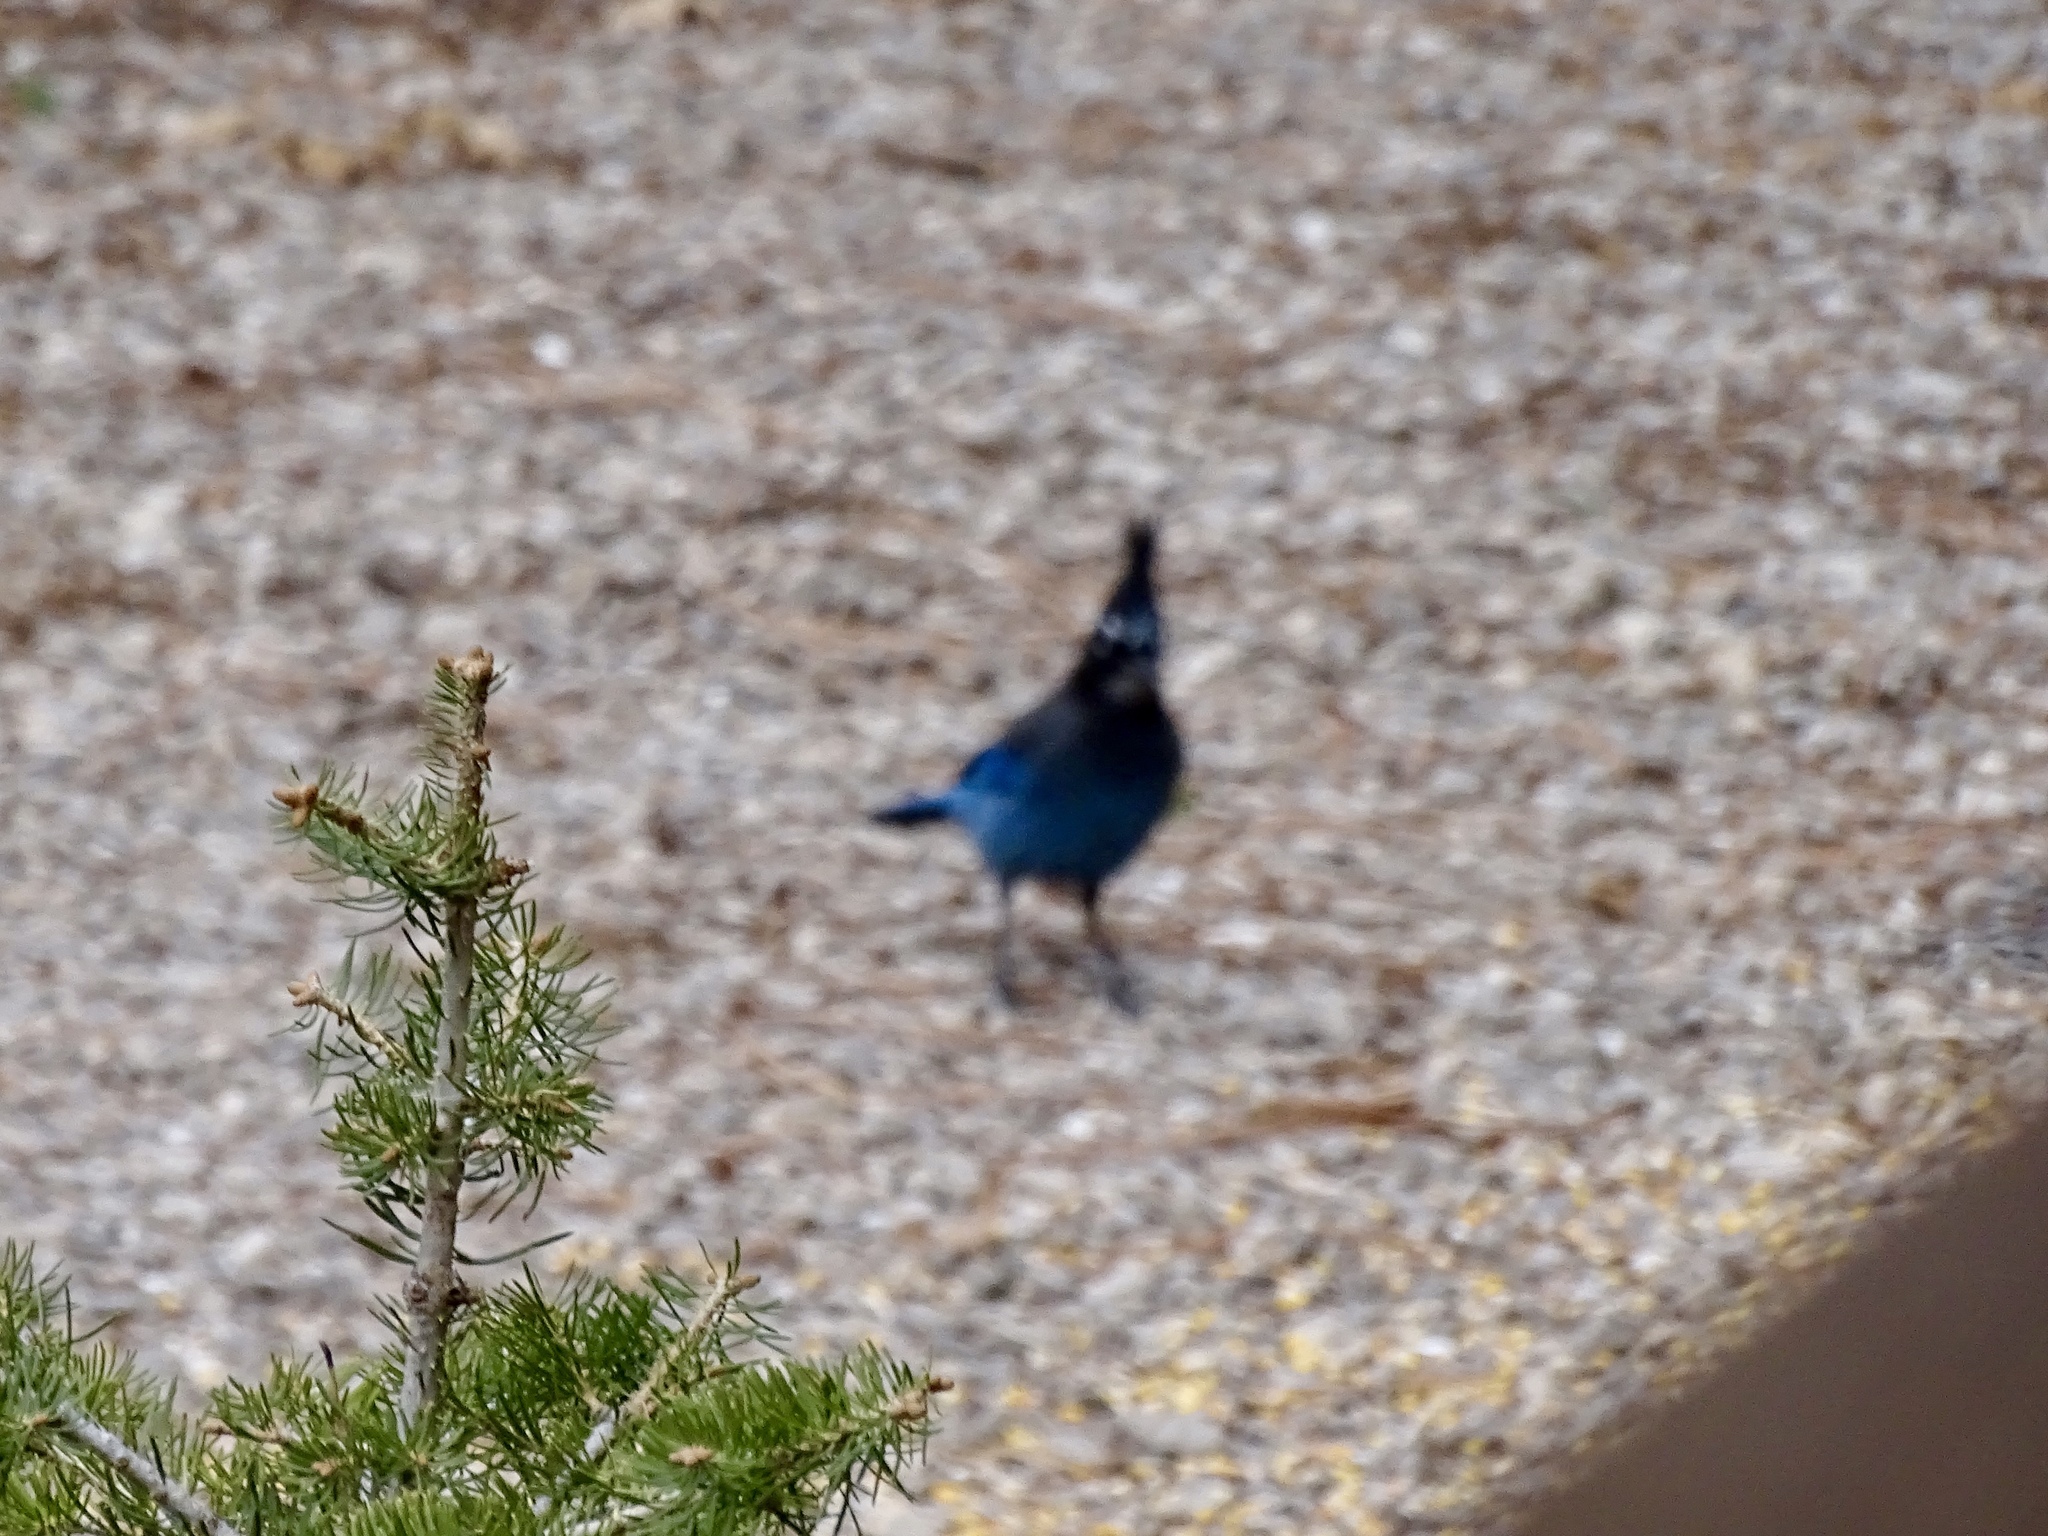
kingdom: Animalia
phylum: Chordata
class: Aves
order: Passeriformes
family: Corvidae
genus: Cyanocitta
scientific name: Cyanocitta stelleri
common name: Steller's jay
